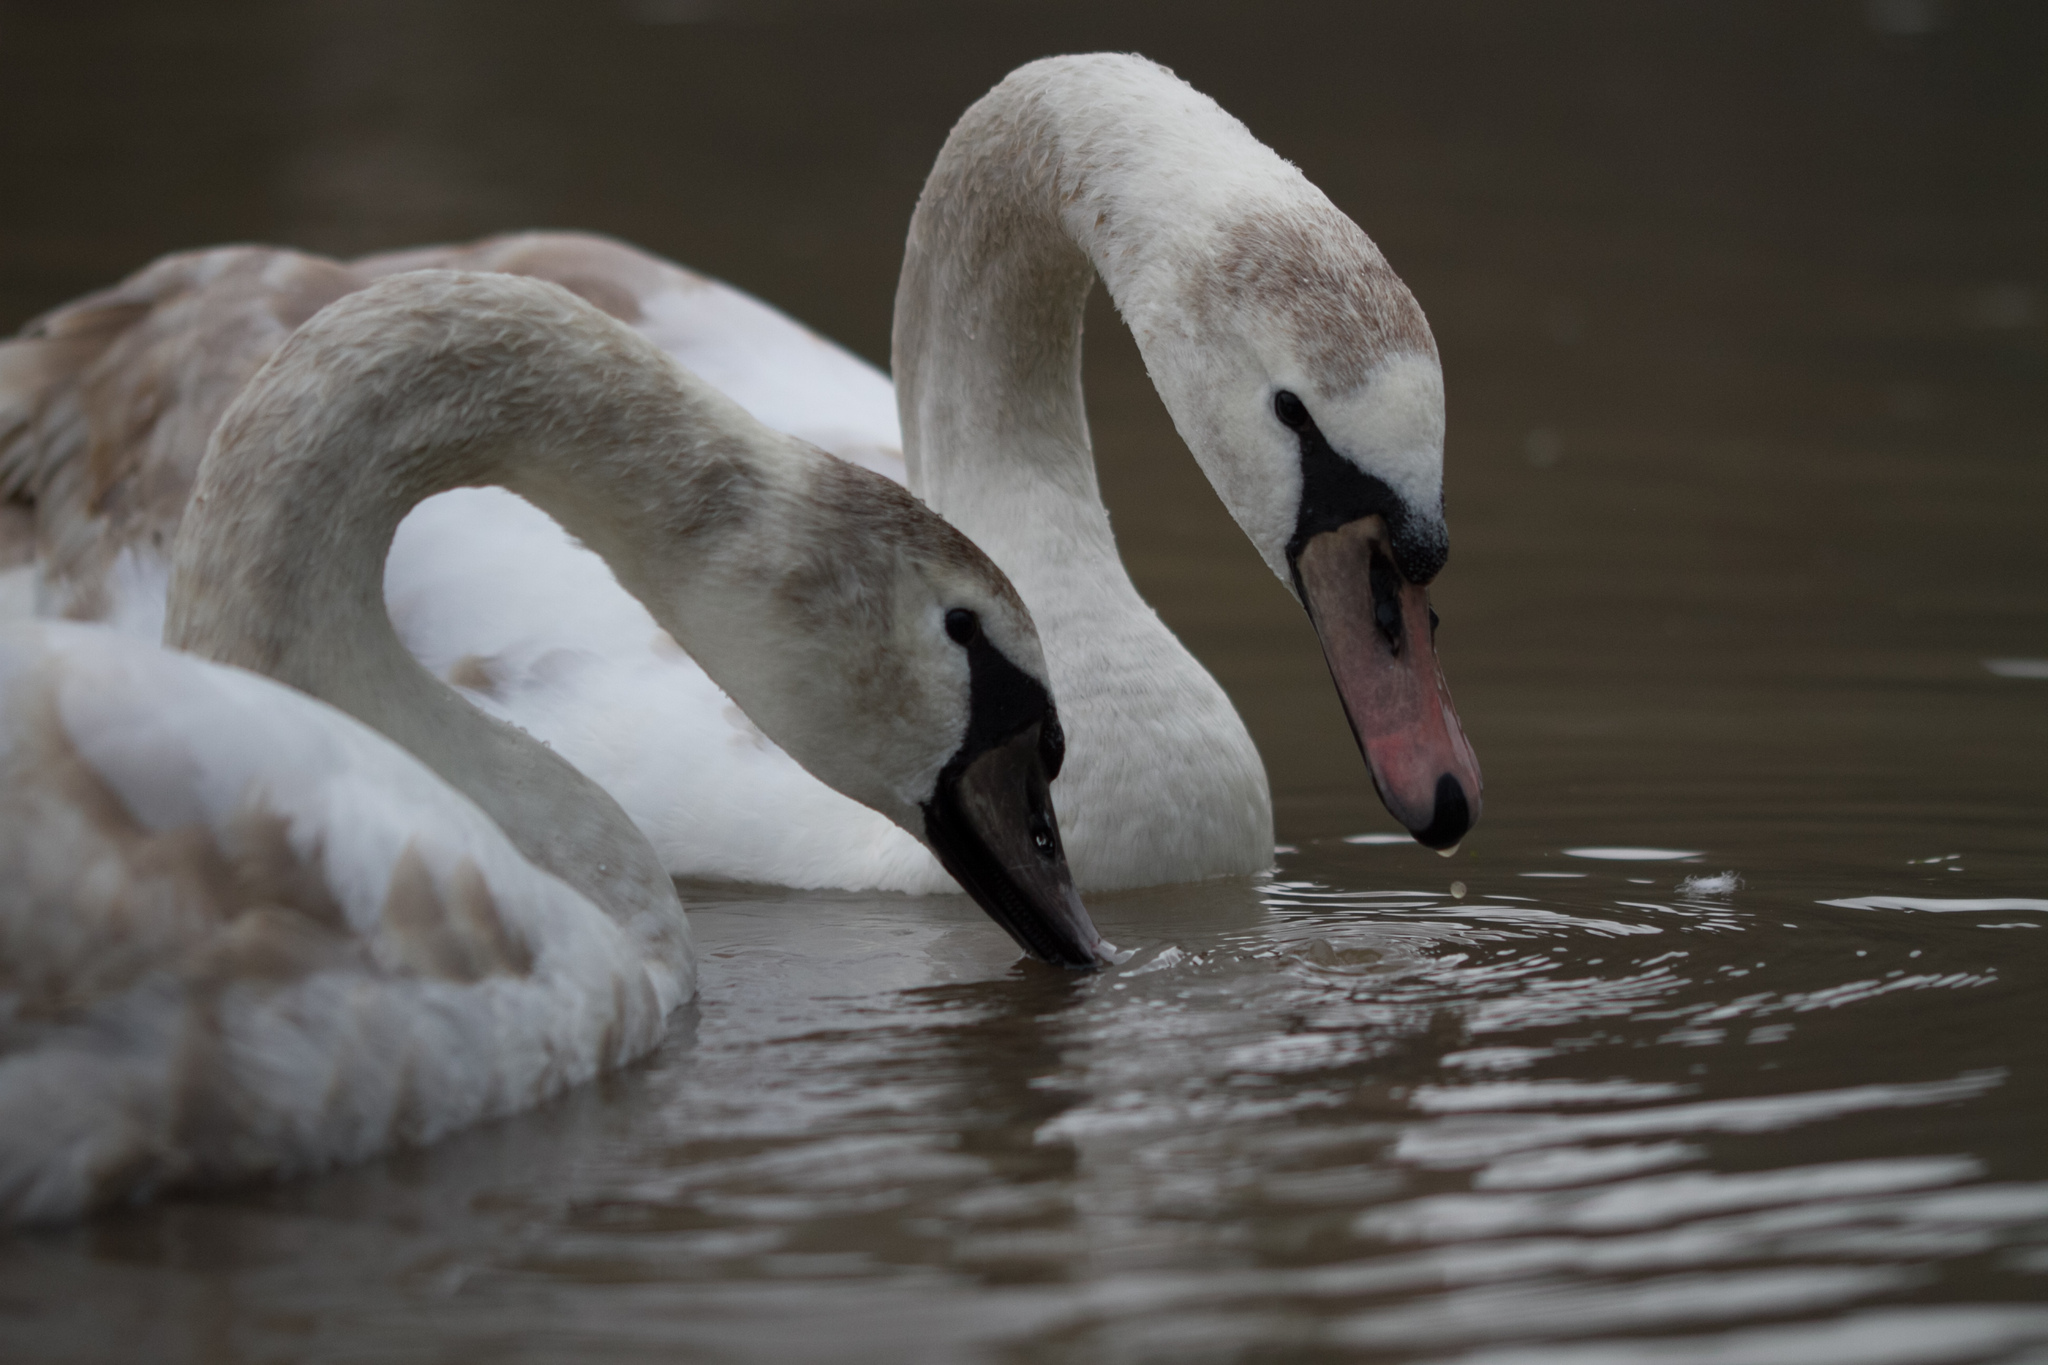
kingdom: Animalia
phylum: Chordata
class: Aves
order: Anseriformes
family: Anatidae
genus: Cygnus
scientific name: Cygnus olor
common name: Mute swan
